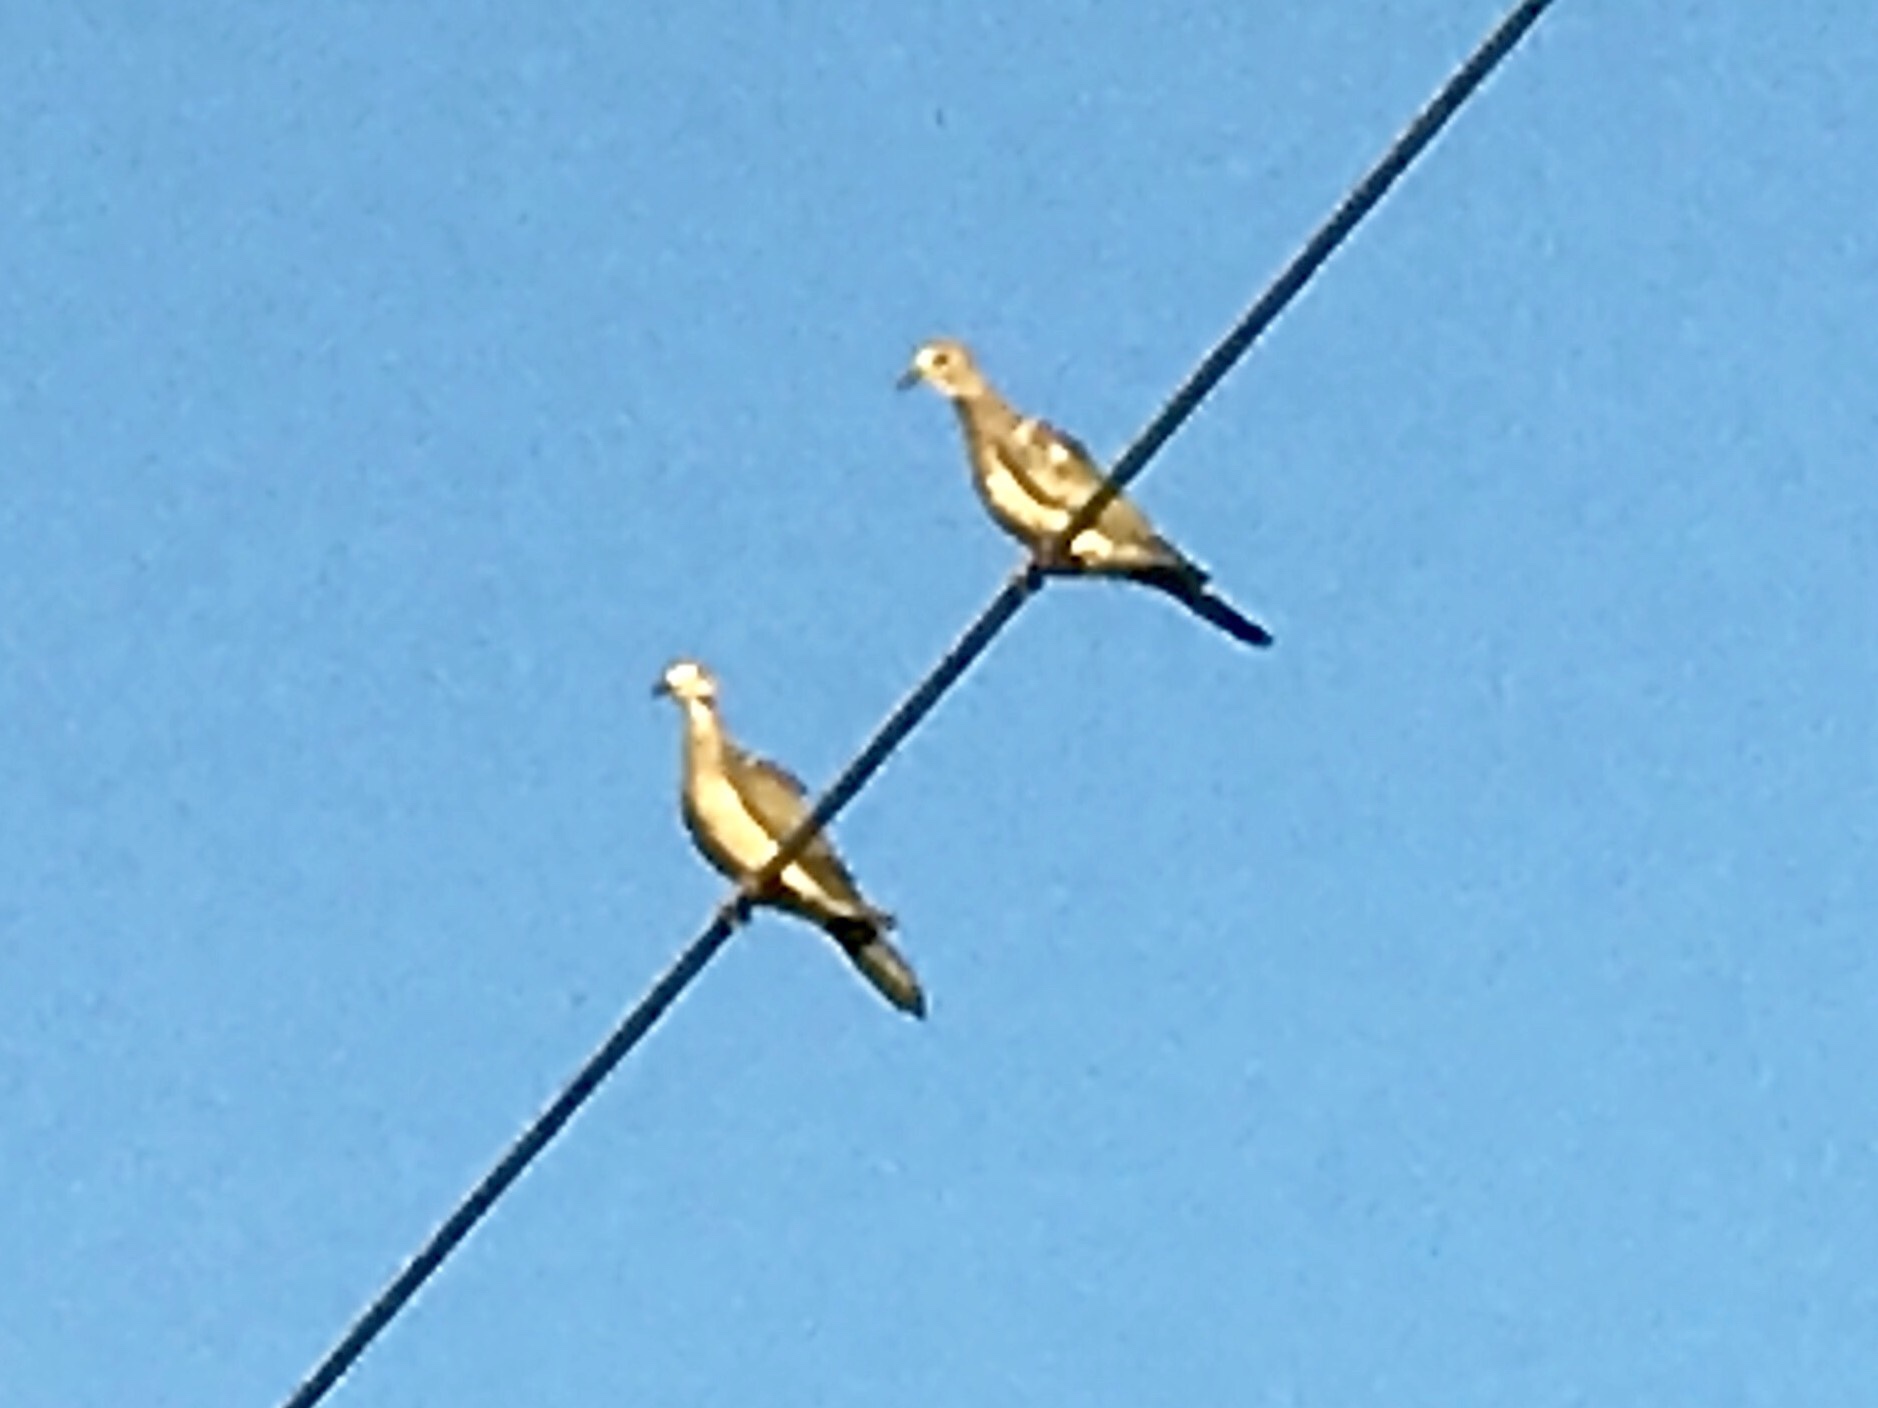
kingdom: Animalia
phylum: Chordata
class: Aves
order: Columbiformes
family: Columbidae
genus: Zenaida
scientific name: Zenaida macroura
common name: Mourning dove
